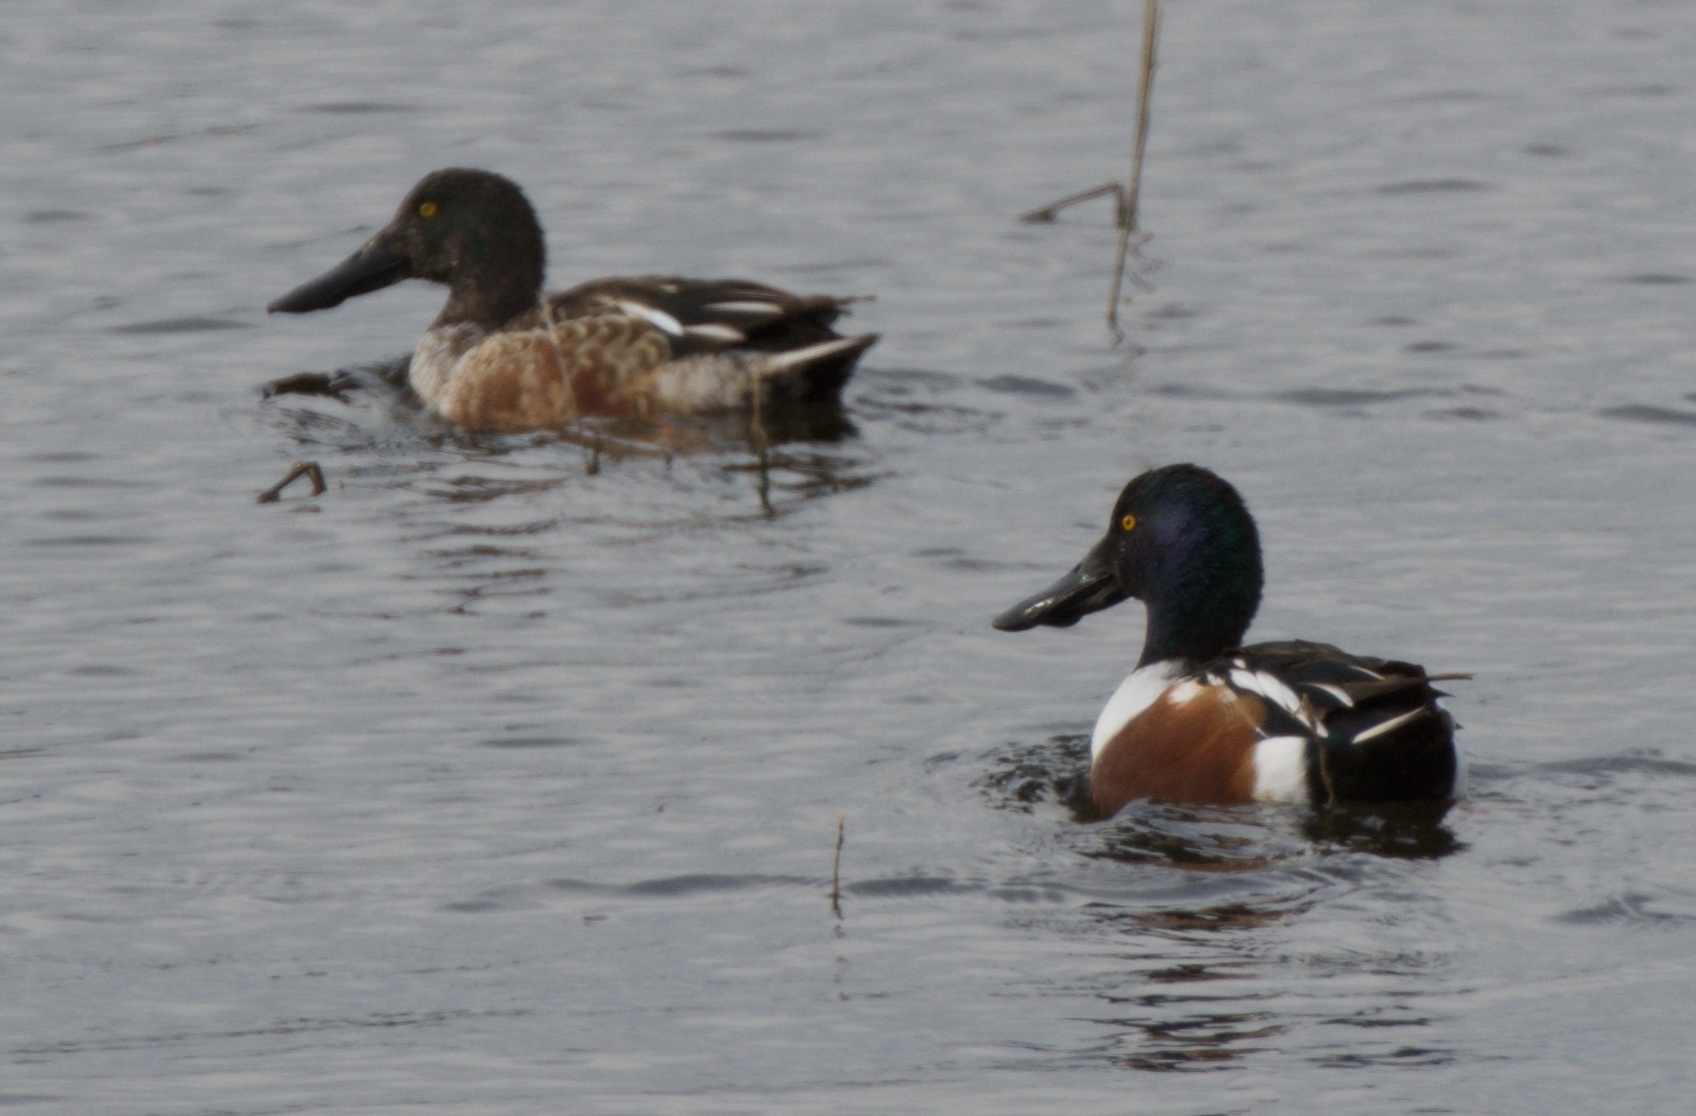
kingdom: Animalia
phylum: Chordata
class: Aves
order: Anseriformes
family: Anatidae
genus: Spatula
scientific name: Spatula clypeata
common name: Northern shoveler
